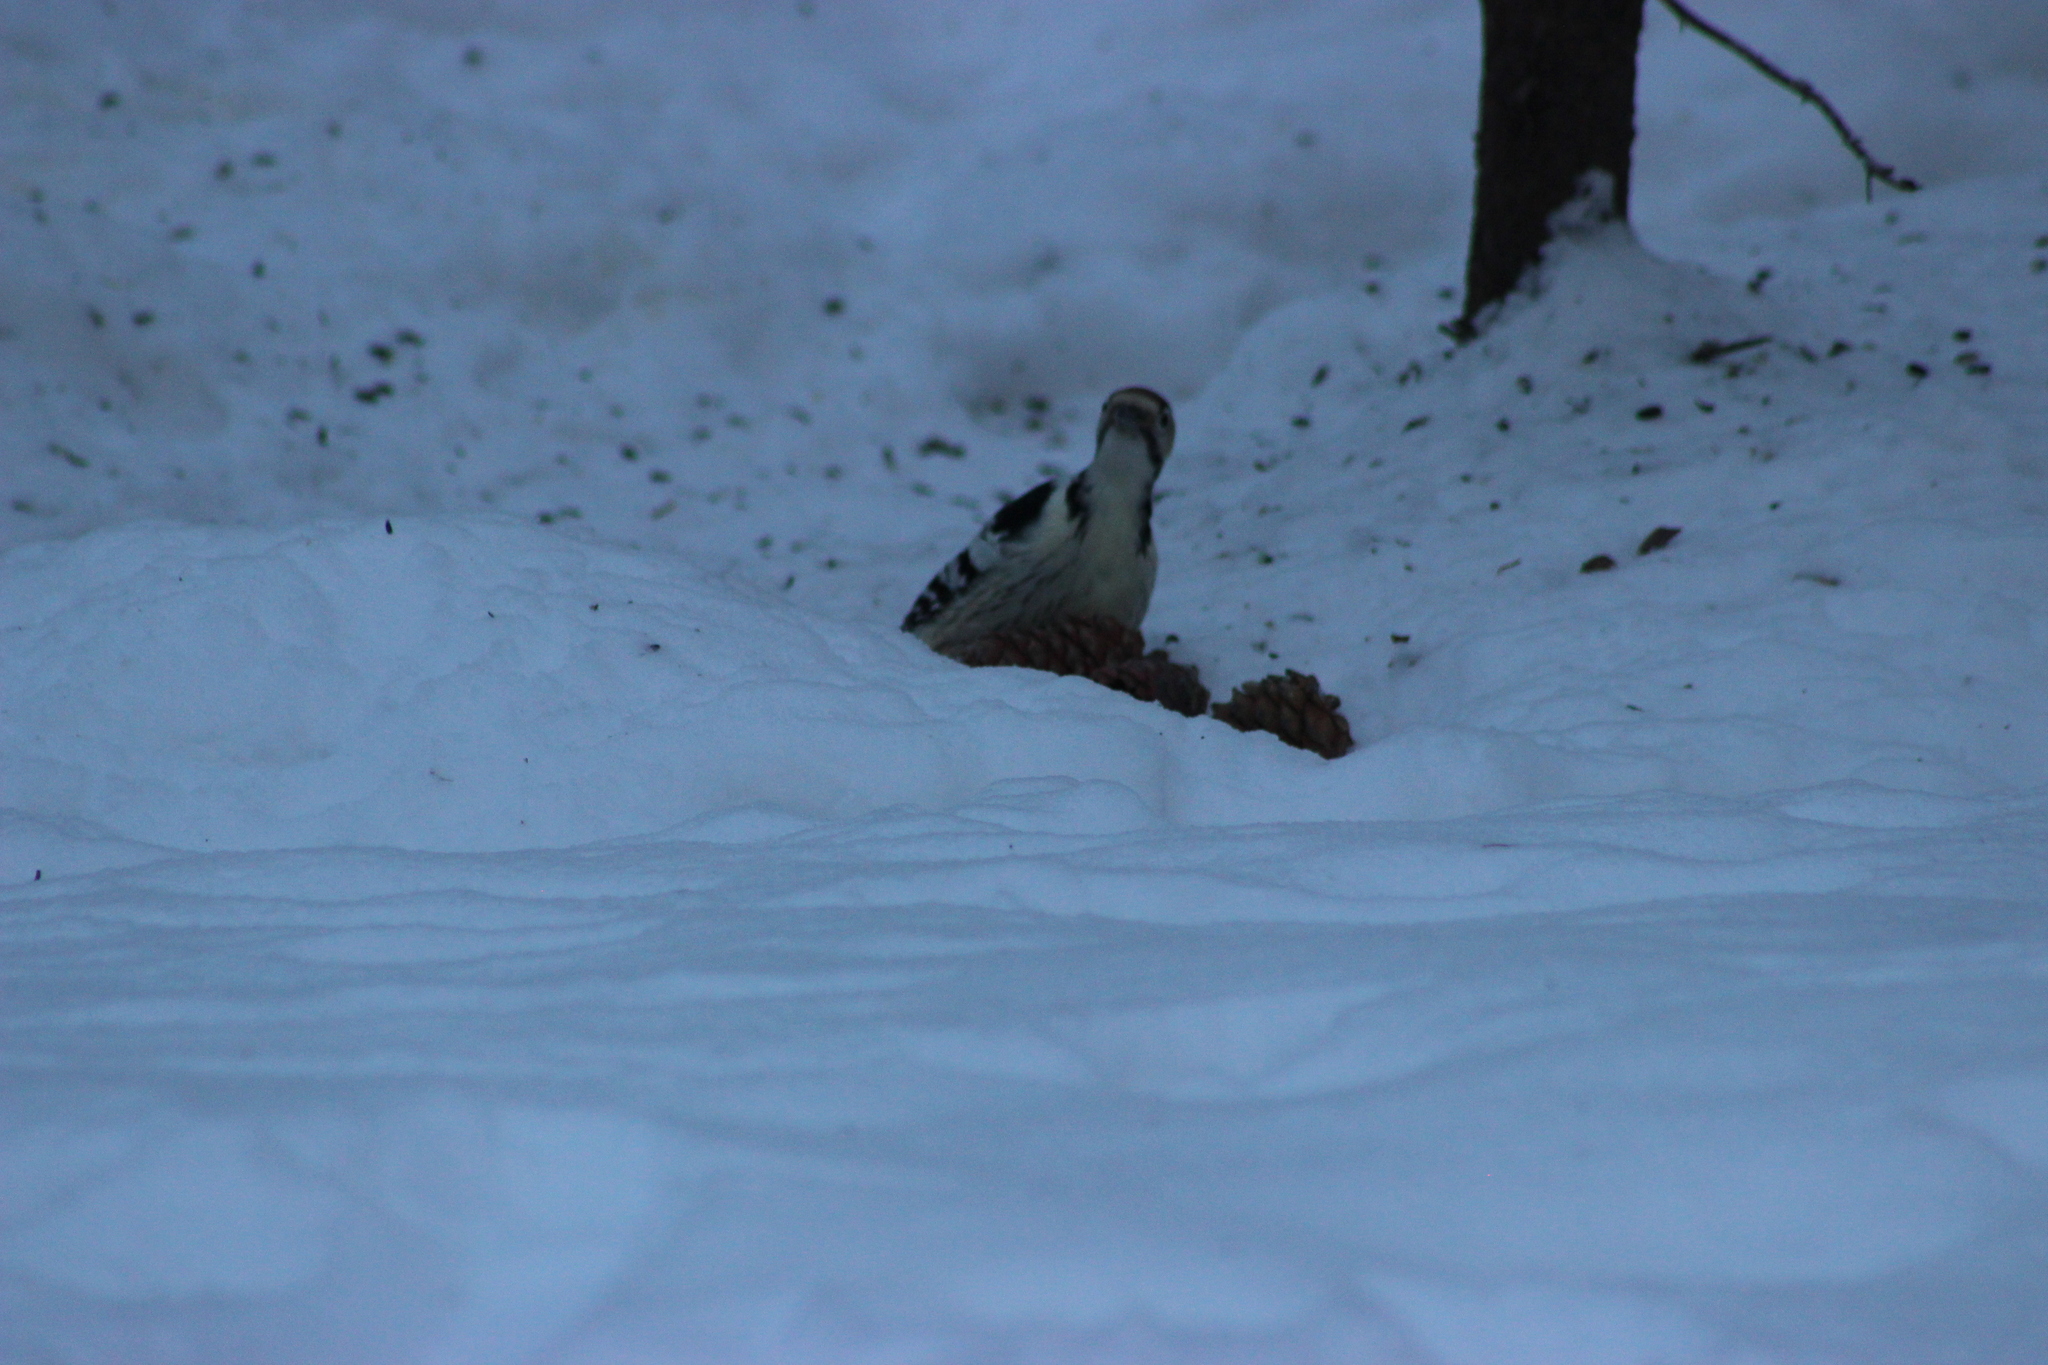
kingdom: Animalia
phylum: Chordata
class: Aves
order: Piciformes
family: Picidae
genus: Dendrocopos
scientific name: Dendrocopos leucotos
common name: White-backed woodpecker
